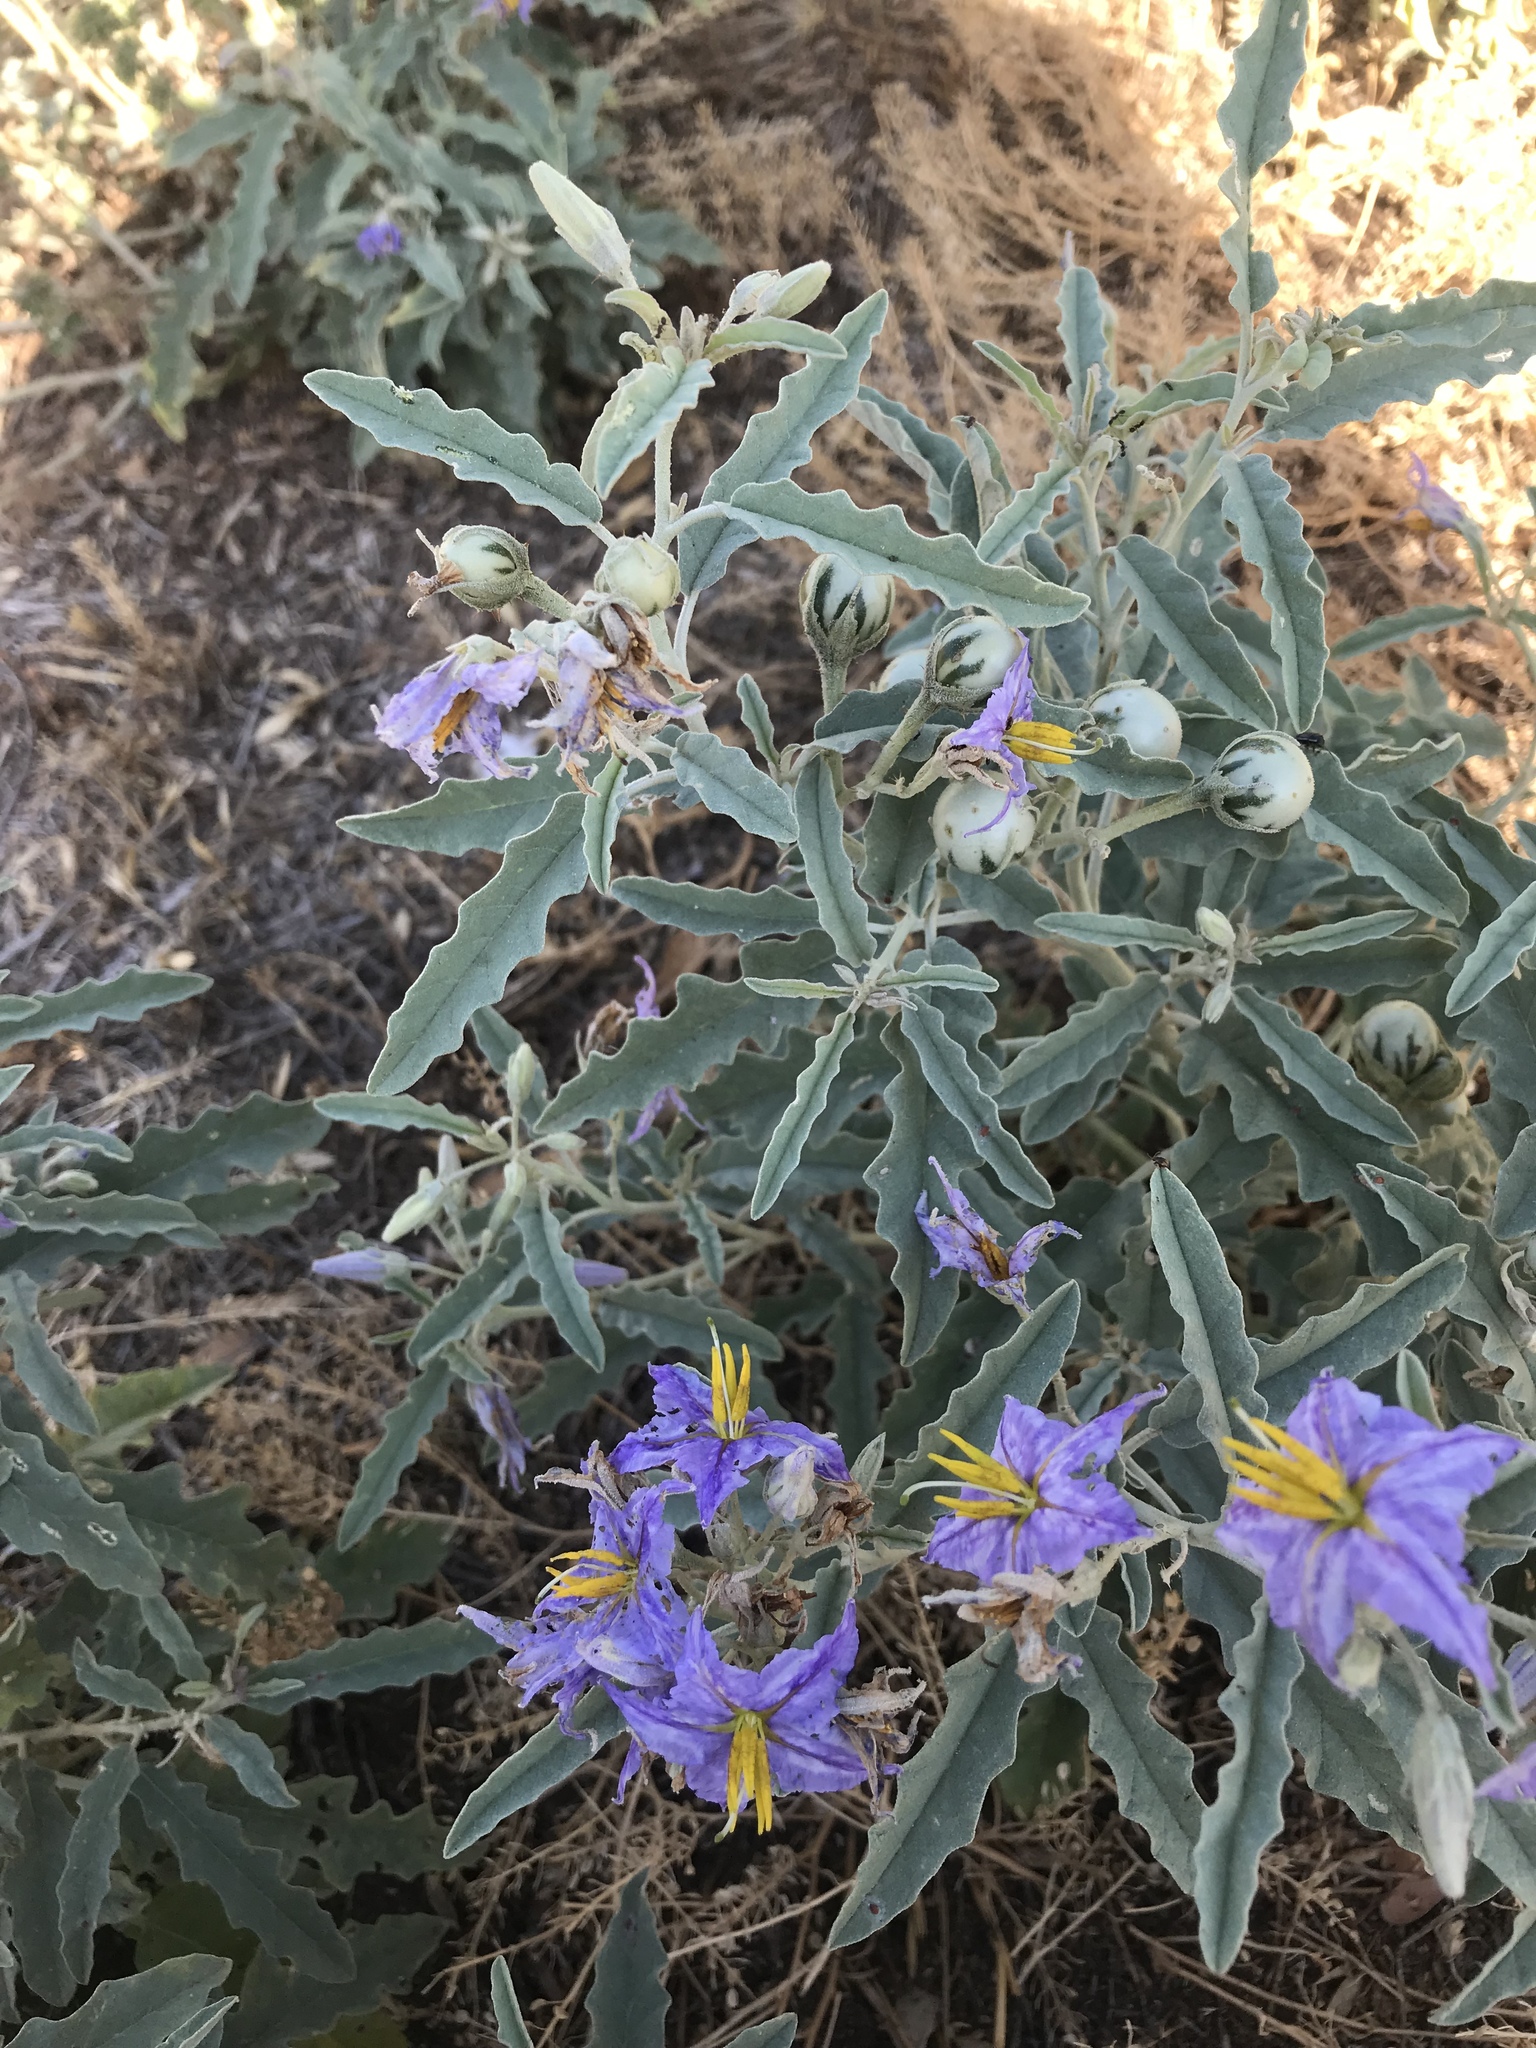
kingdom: Plantae
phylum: Tracheophyta
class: Magnoliopsida
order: Solanales
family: Solanaceae
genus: Solanum
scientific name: Solanum elaeagnifolium
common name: Silverleaf nightshade
